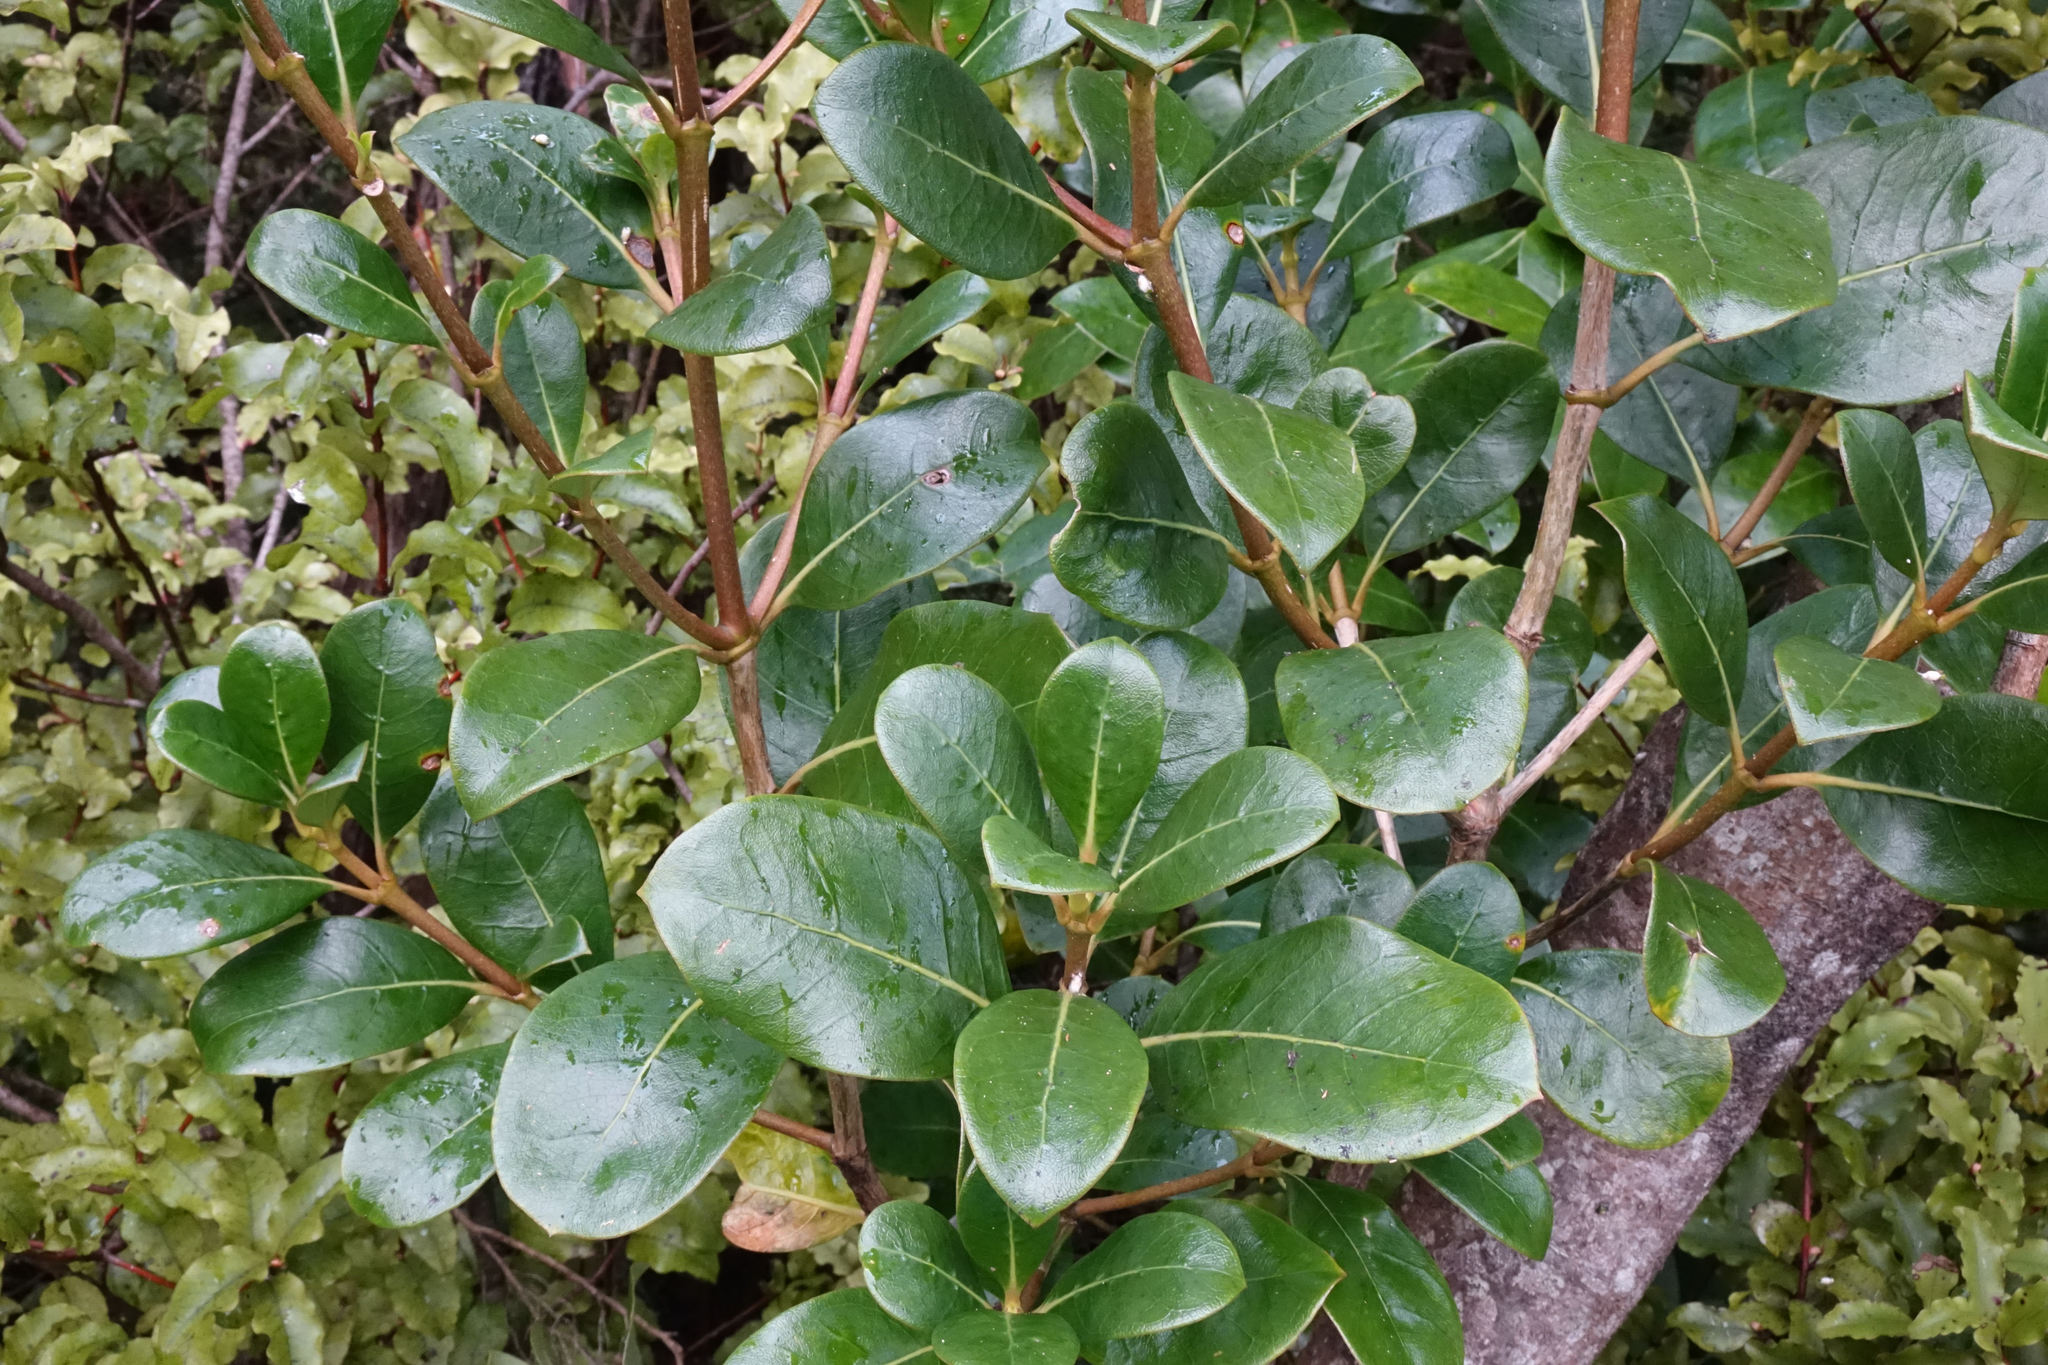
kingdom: Plantae
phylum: Tracheophyta
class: Magnoliopsida
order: Gentianales
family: Rubiaceae
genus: Coprosma
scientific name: Coprosma lucida
